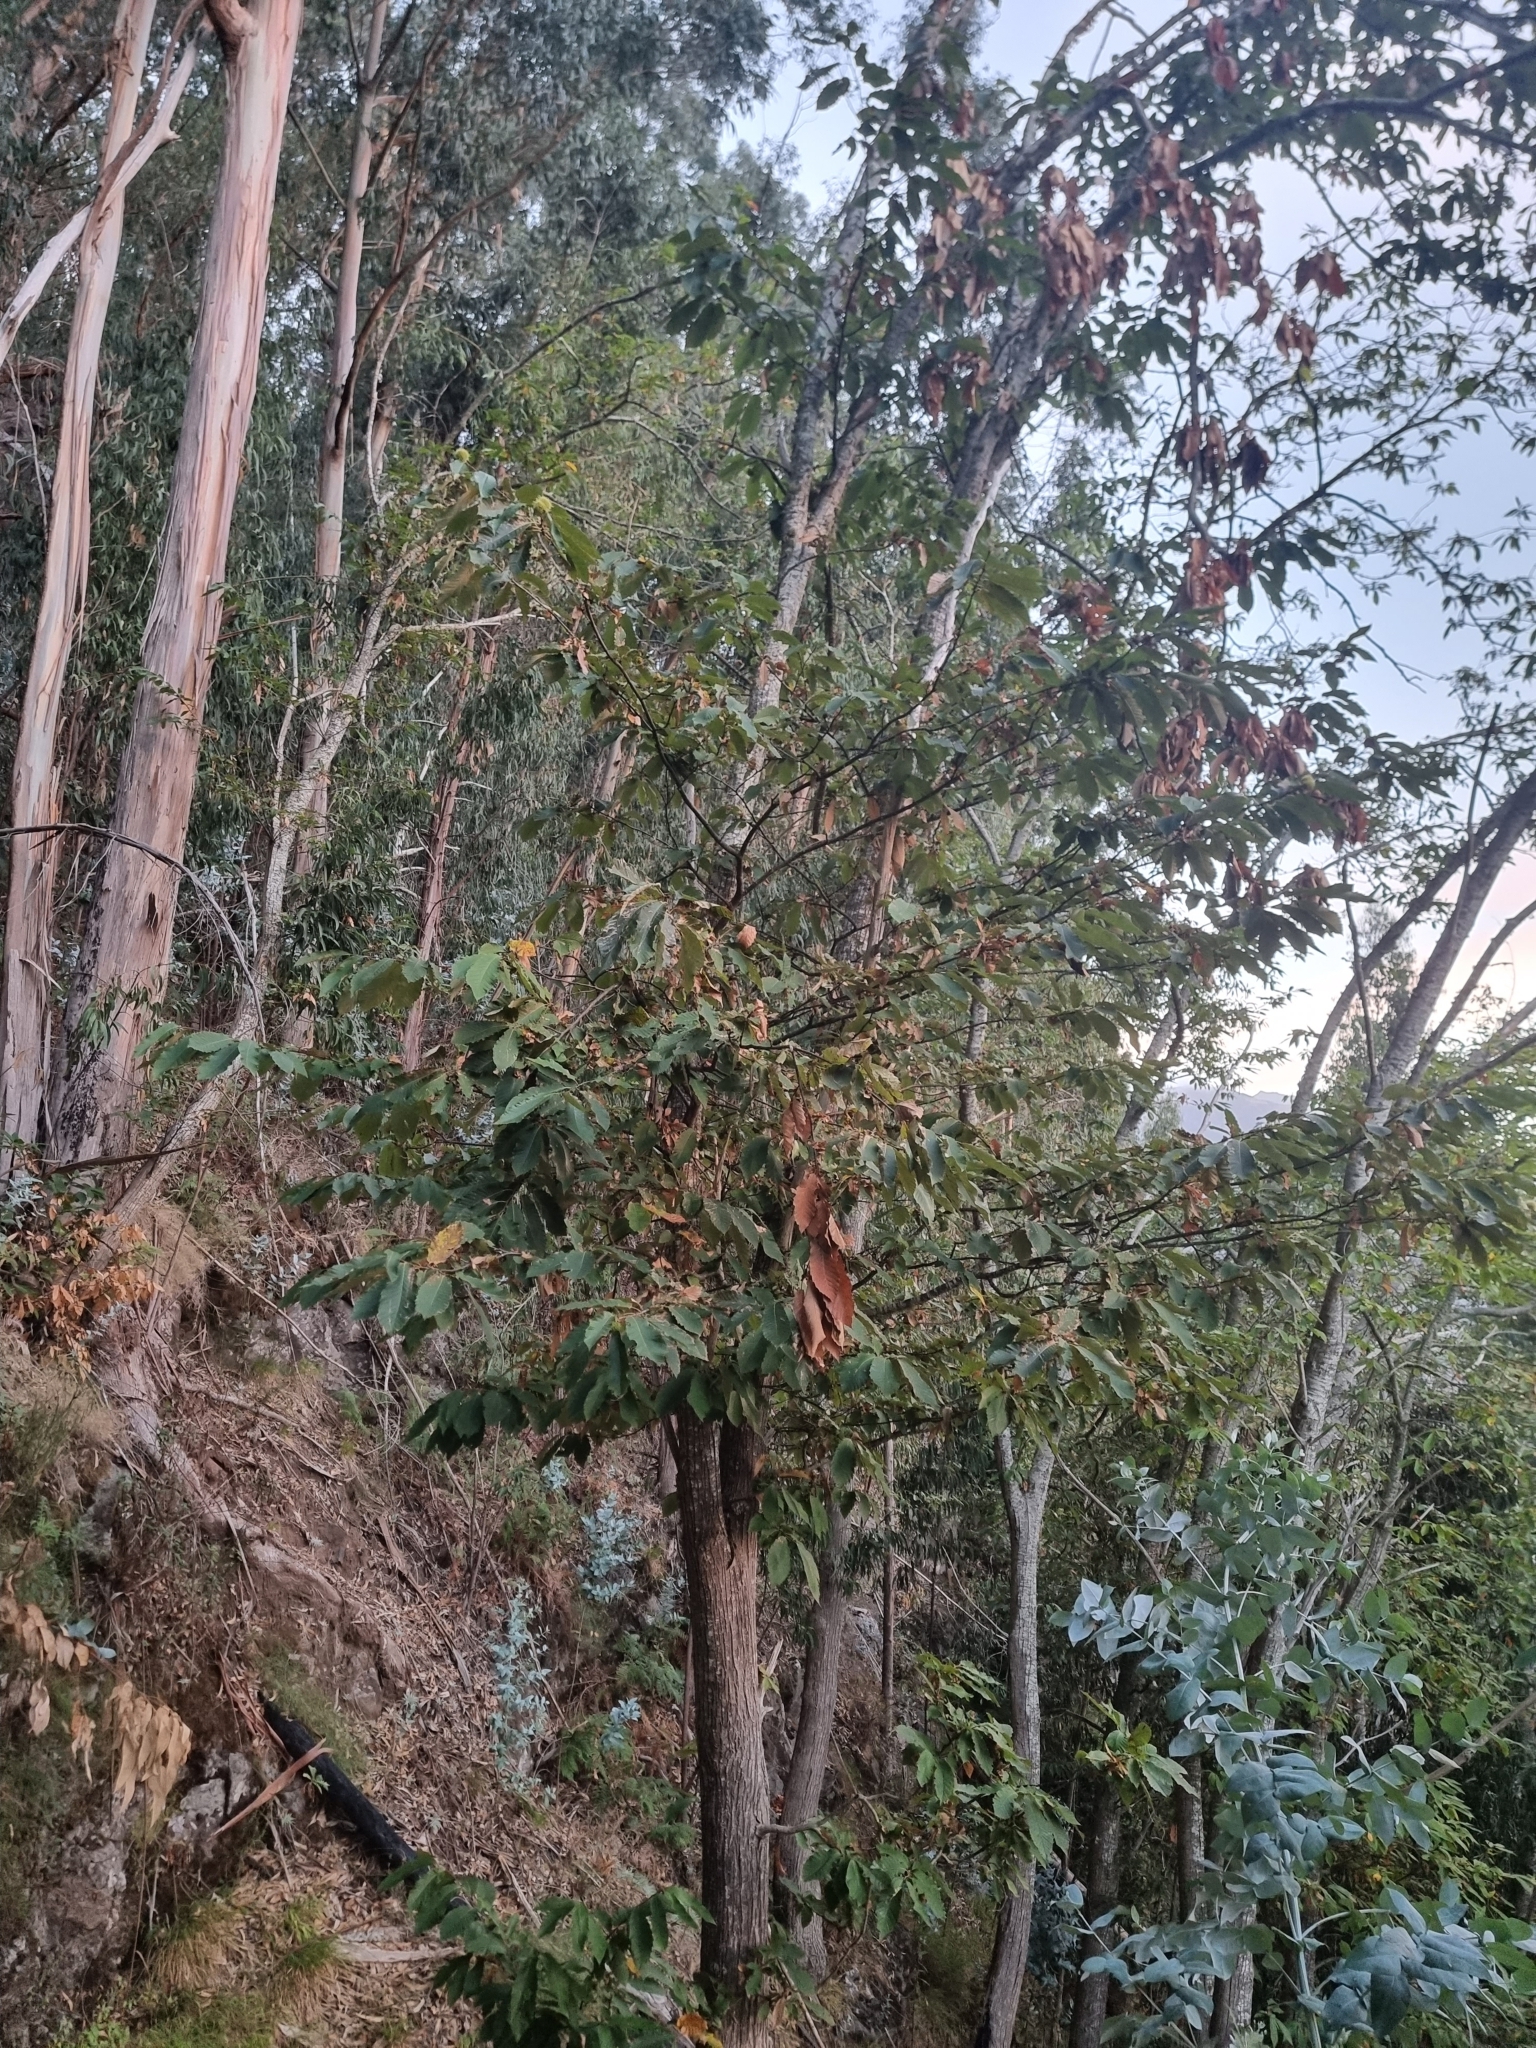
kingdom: Plantae
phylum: Tracheophyta
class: Magnoliopsida
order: Fagales
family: Fagaceae
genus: Castanea
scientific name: Castanea sativa
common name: Sweet chestnut
